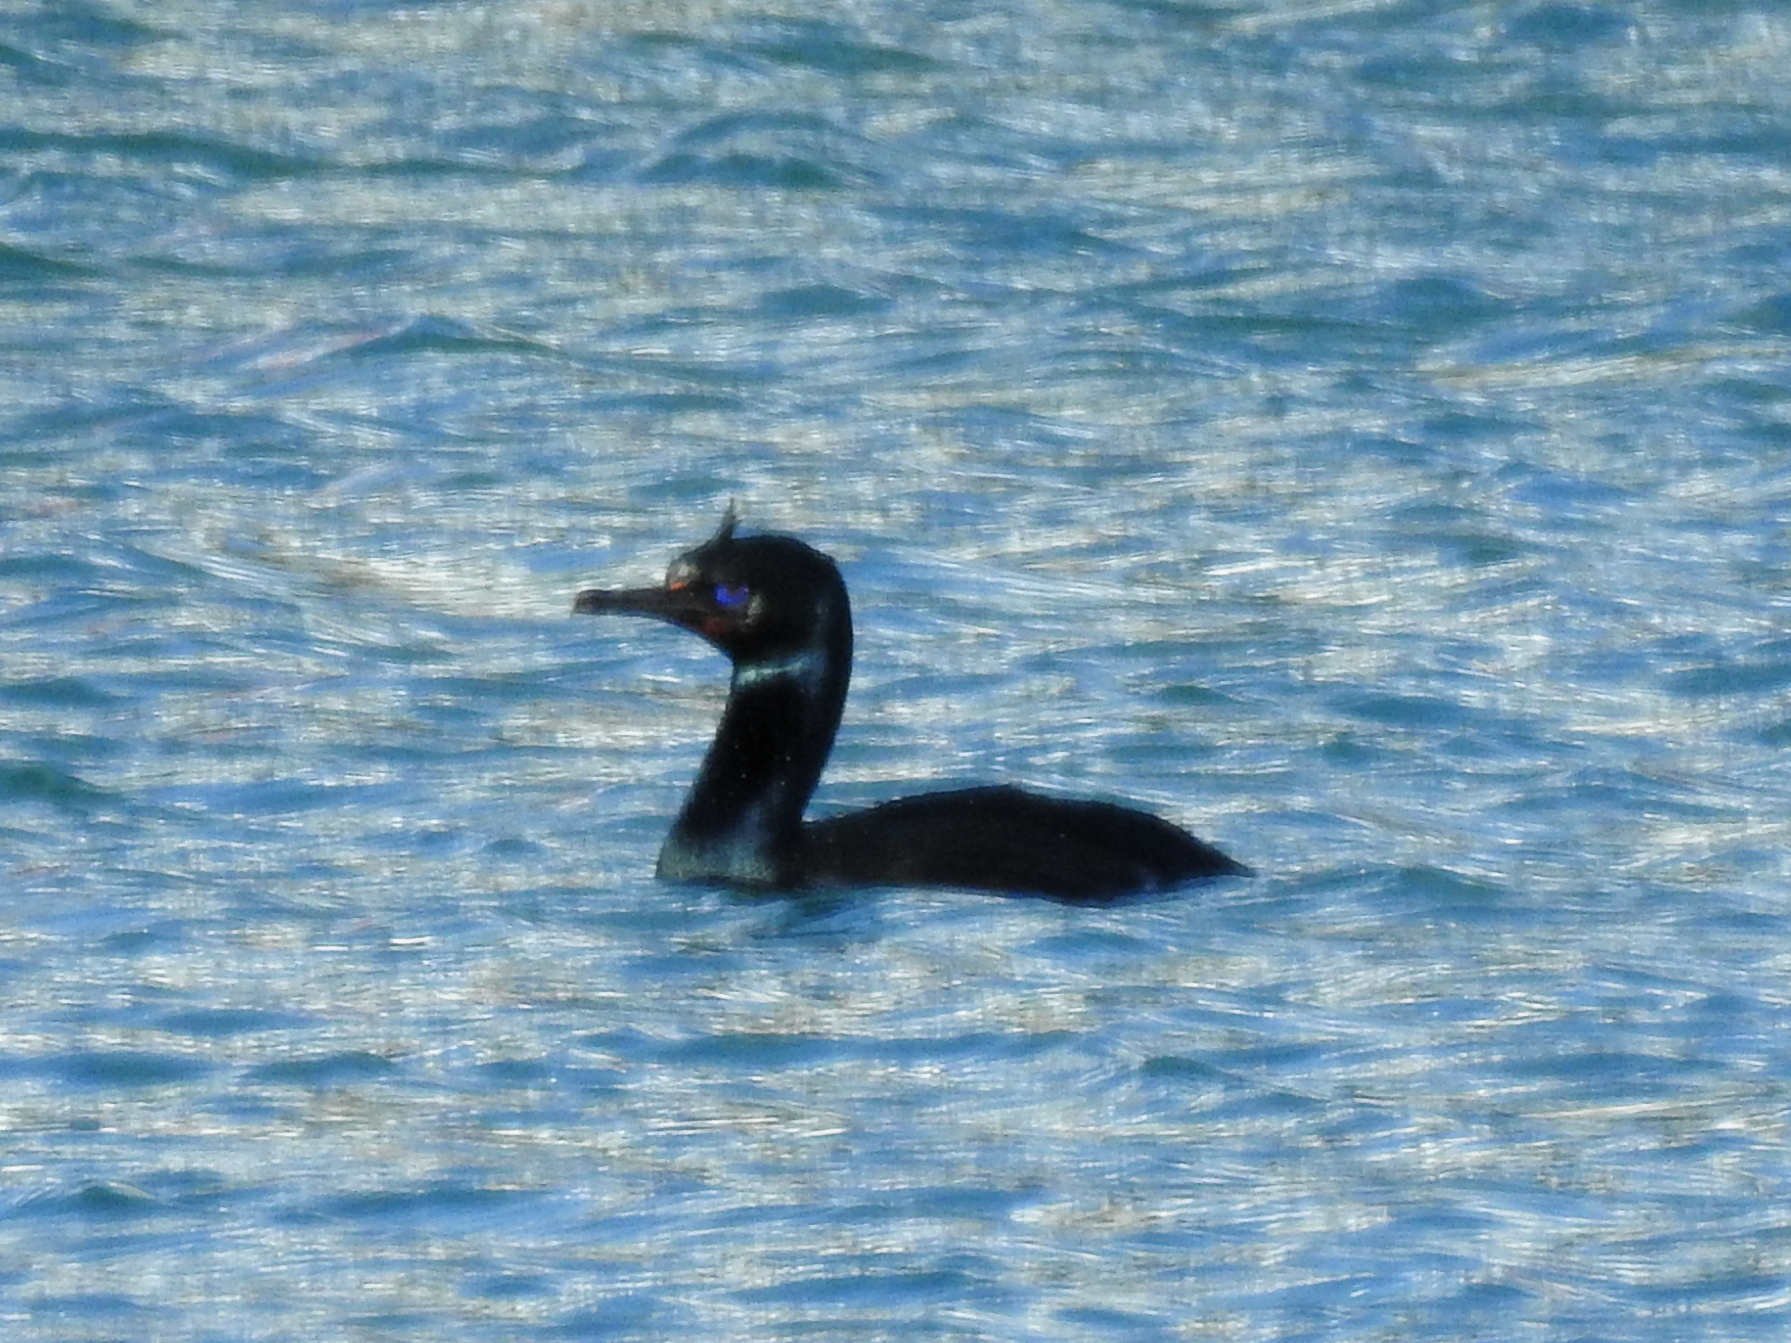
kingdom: Animalia
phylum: Chordata
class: Aves
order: Suliformes
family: Phalacrocoracidae
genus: Leucocarbo
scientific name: Leucocarbo chalconotus
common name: Stewart shag
